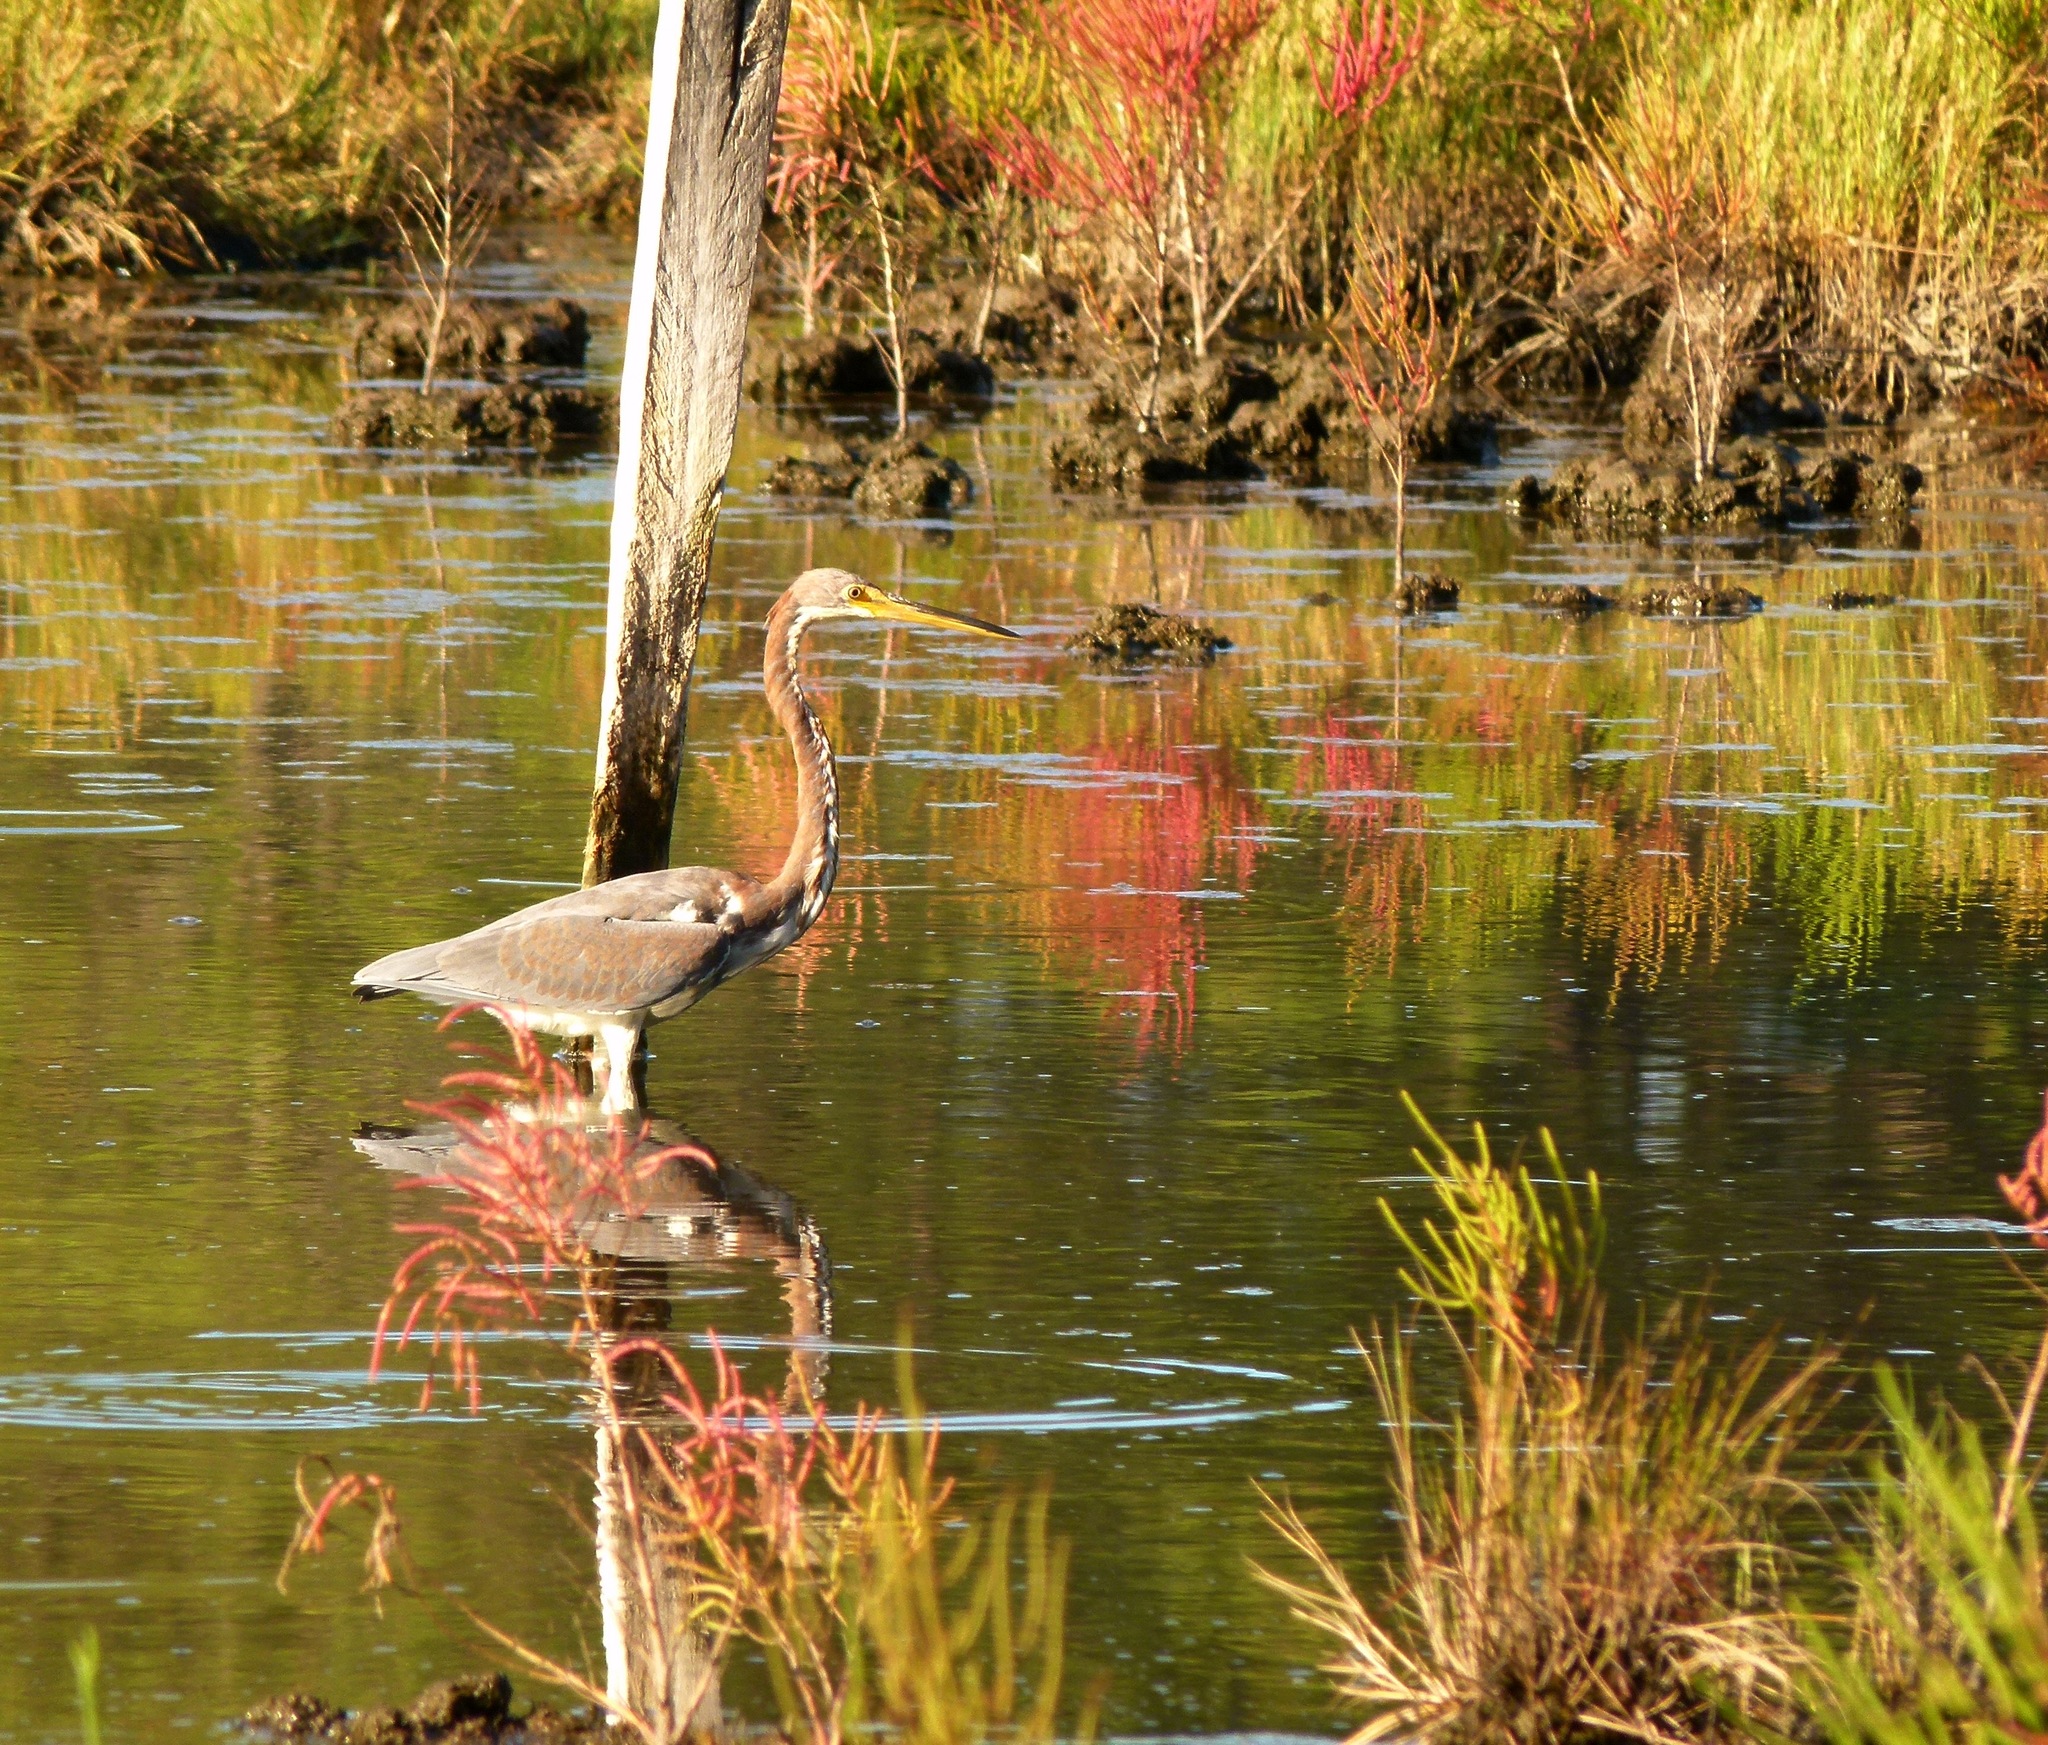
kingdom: Animalia
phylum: Chordata
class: Aves
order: Pelecaniformes
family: Ardeidae
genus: Egretta
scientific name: Egretta tricolor
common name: Tricolored heron
